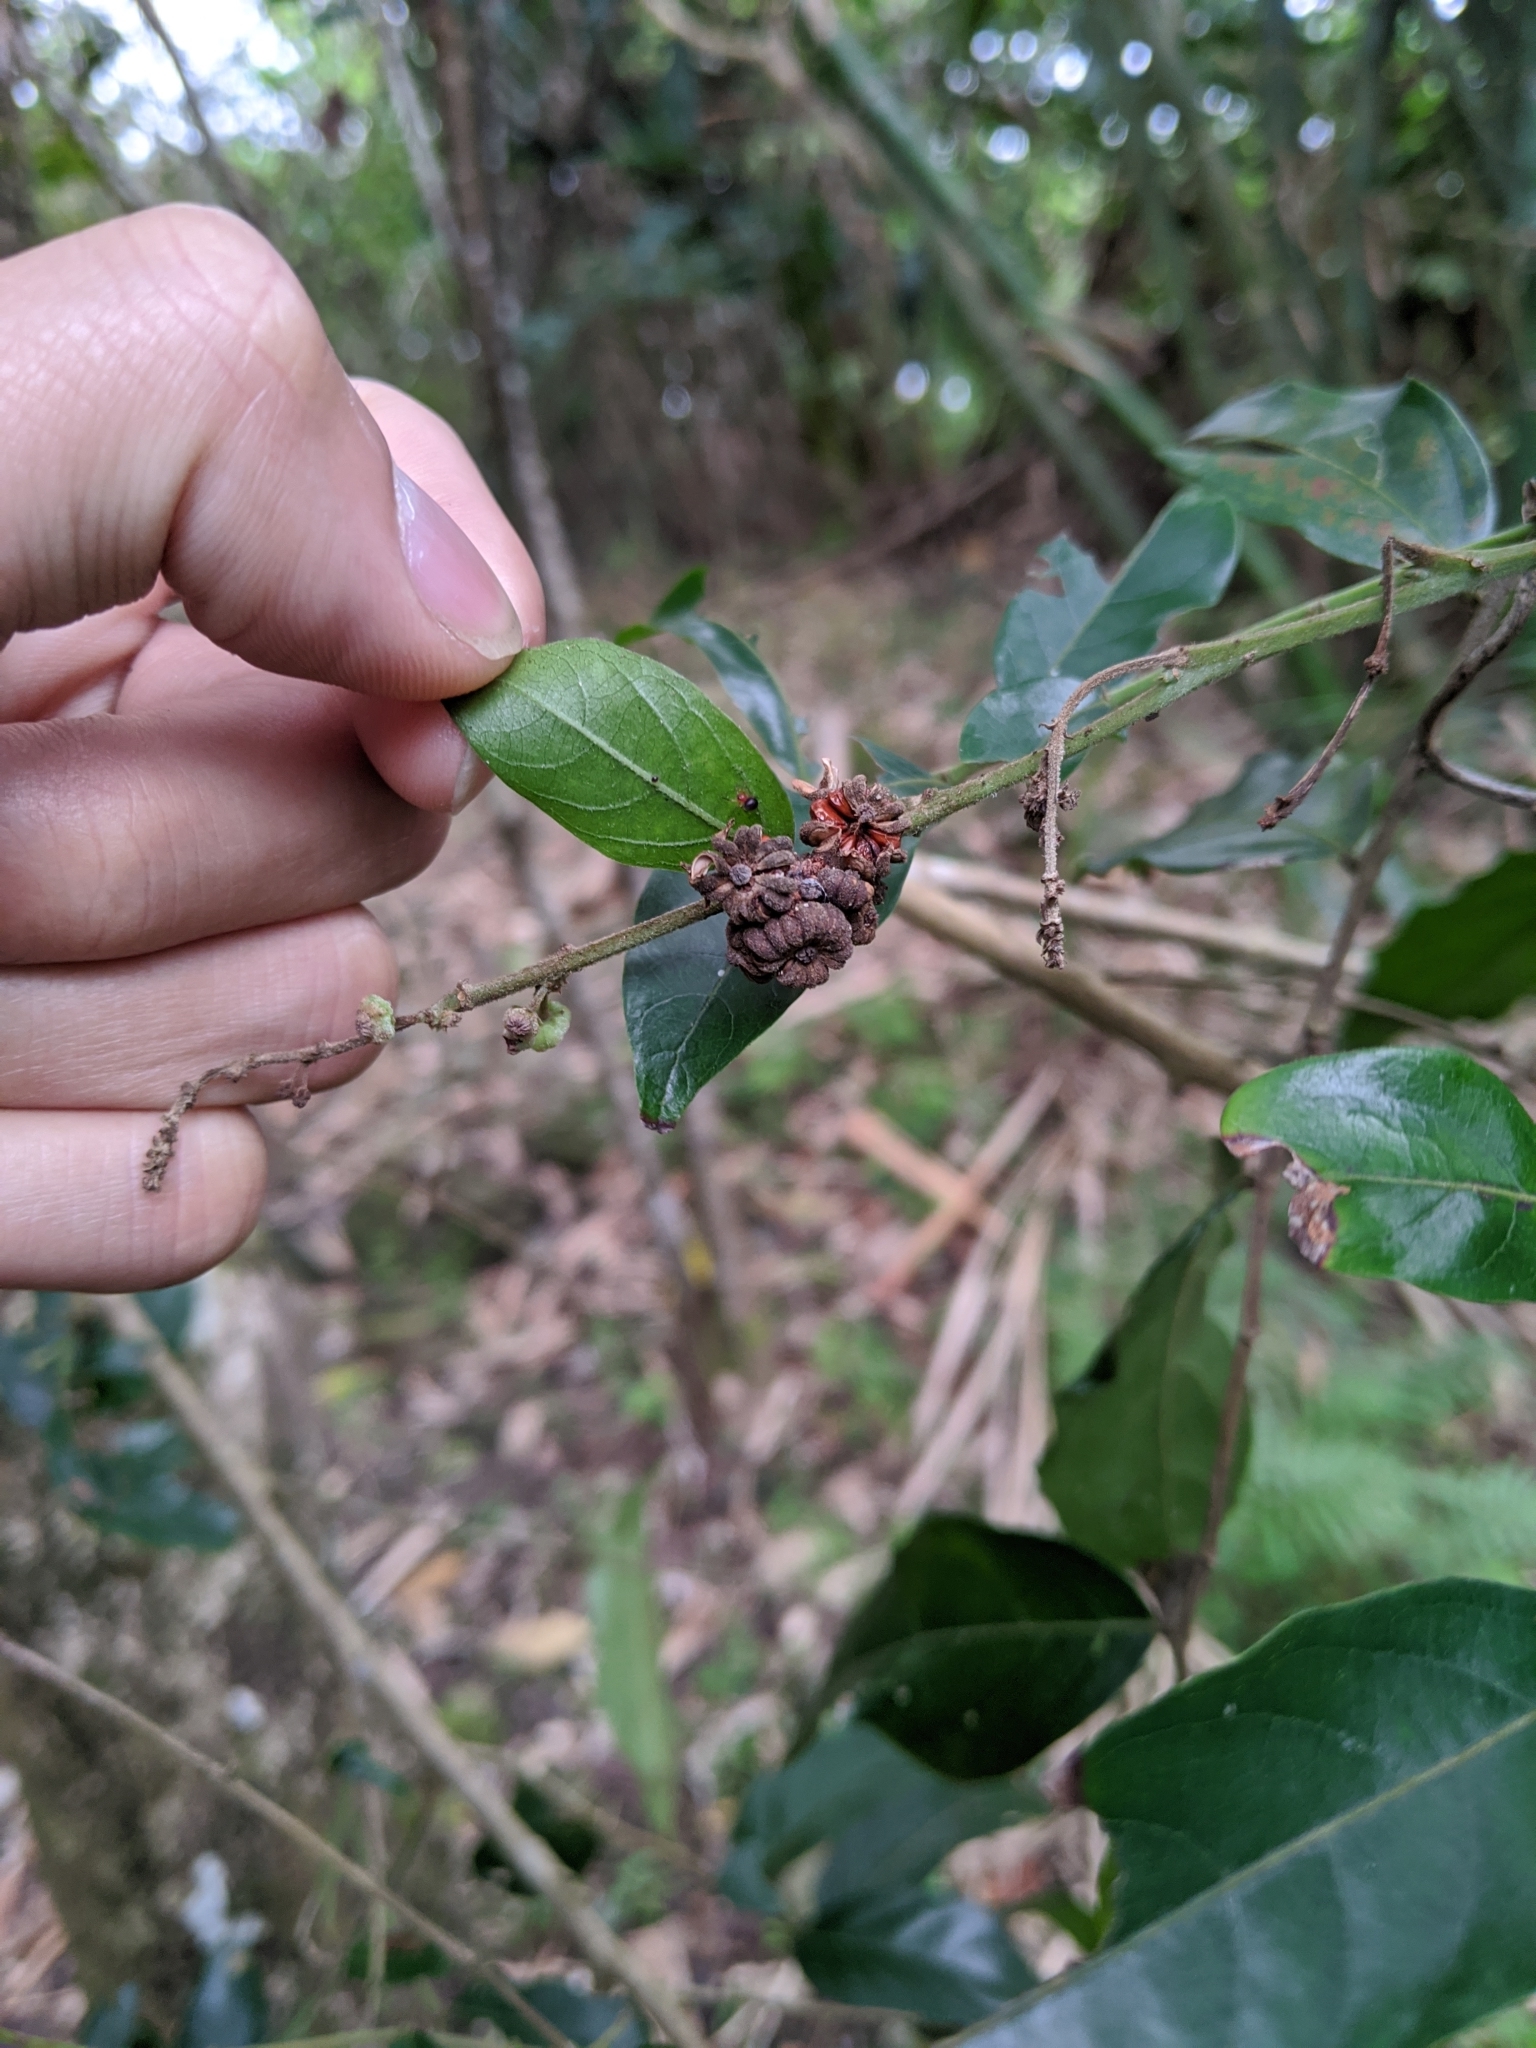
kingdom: Plantae
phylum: Tracheophyta
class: Magnoliopsida
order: Malpighiales
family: Phyllanthaceae
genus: Glochidion
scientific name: Glochidion philippicum
